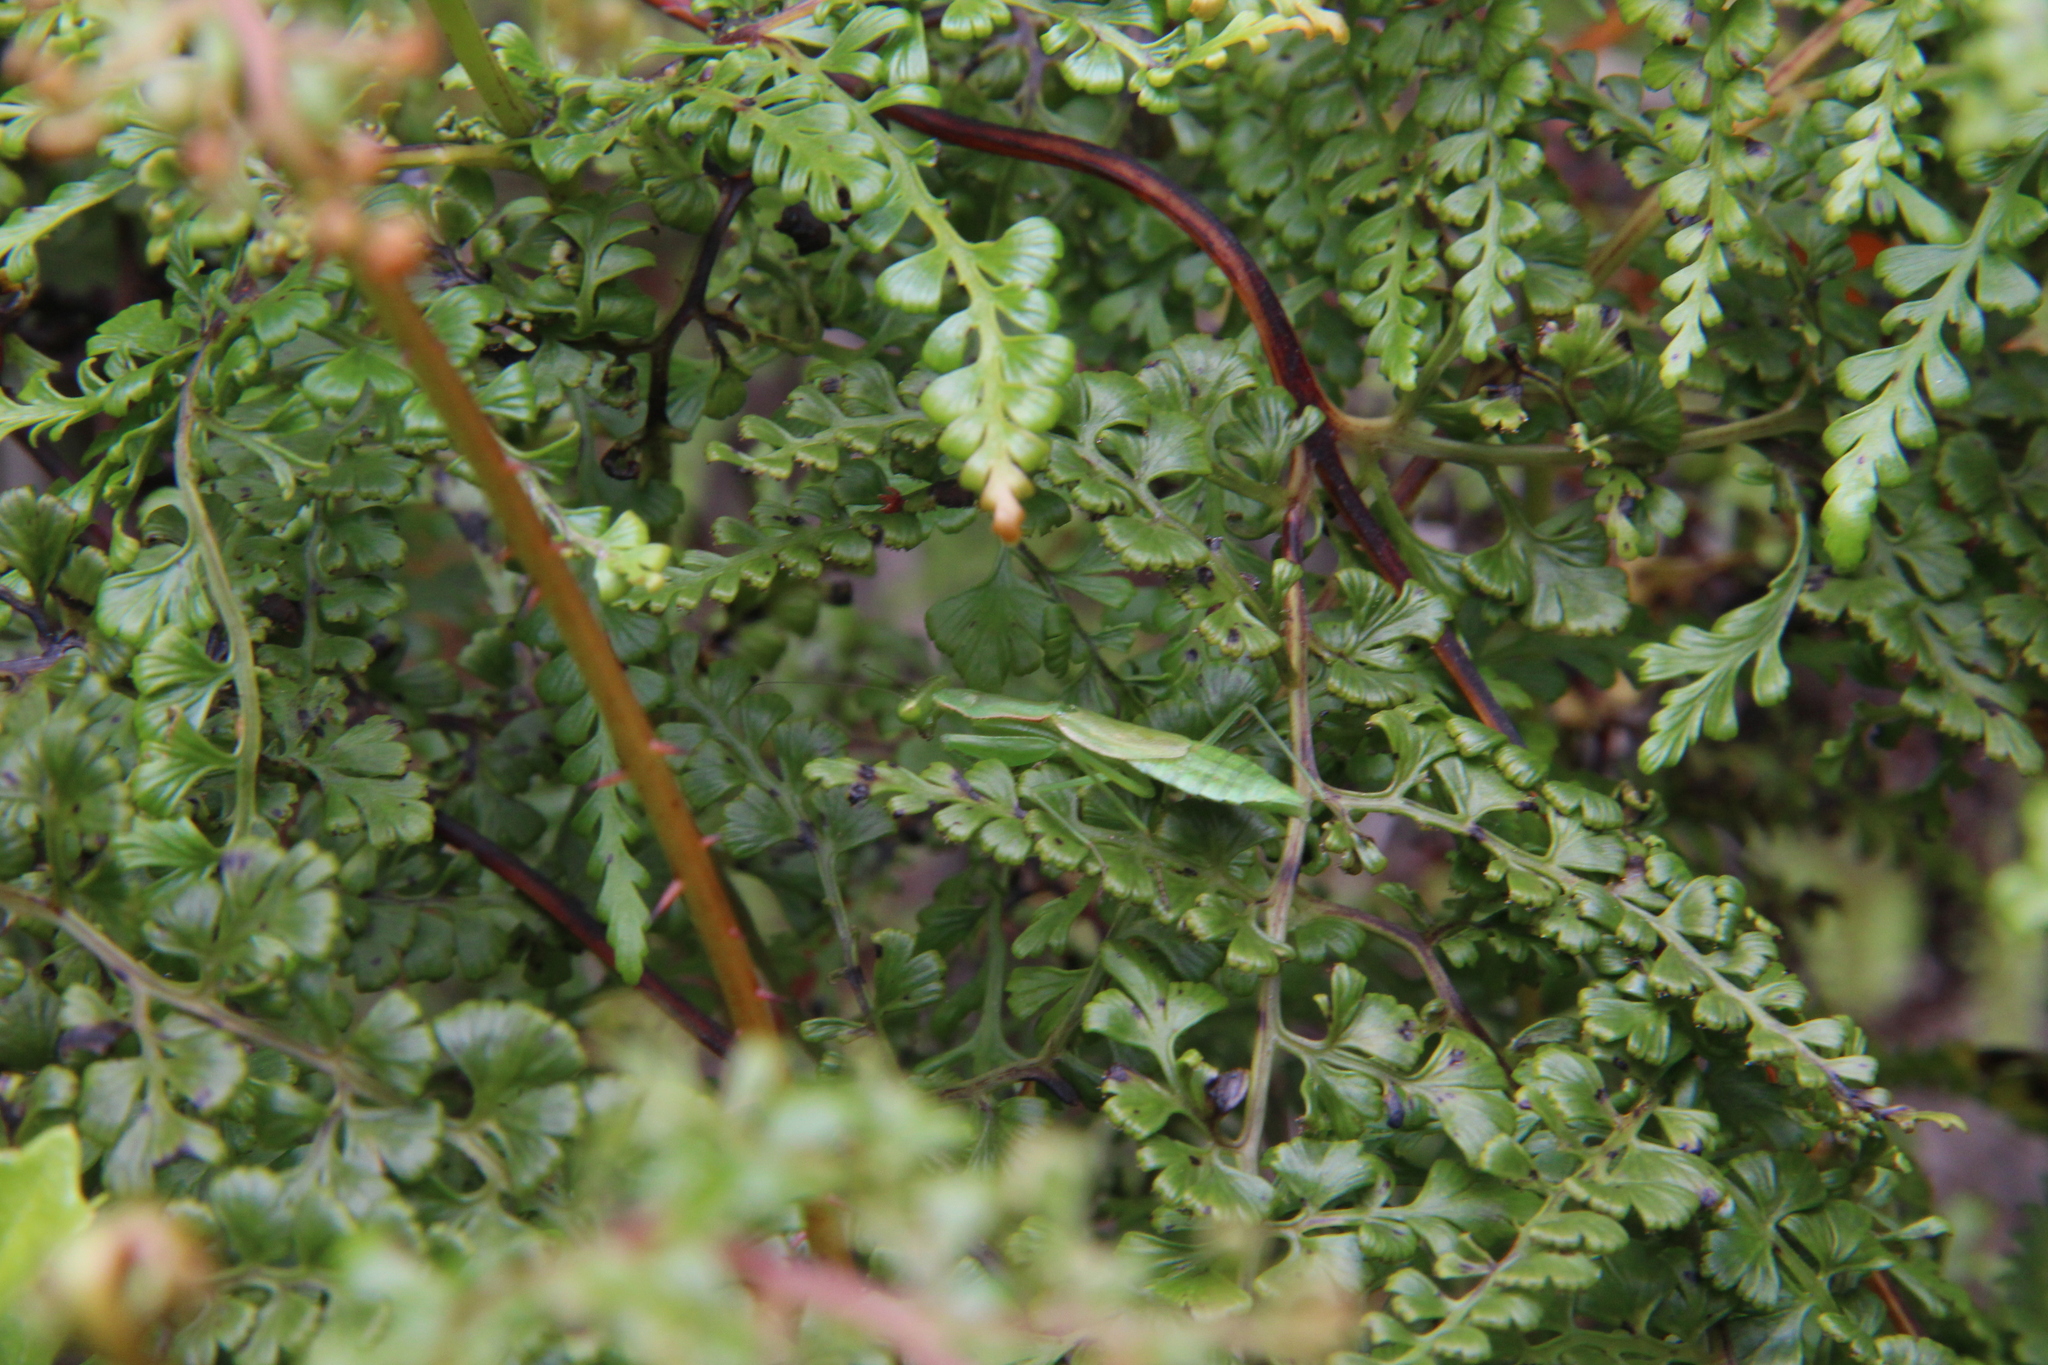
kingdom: Animalia
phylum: Arthropoda
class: Insecta
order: Mantodea
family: Epaphroditidae
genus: Callimantis
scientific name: Callimantis antillarum
